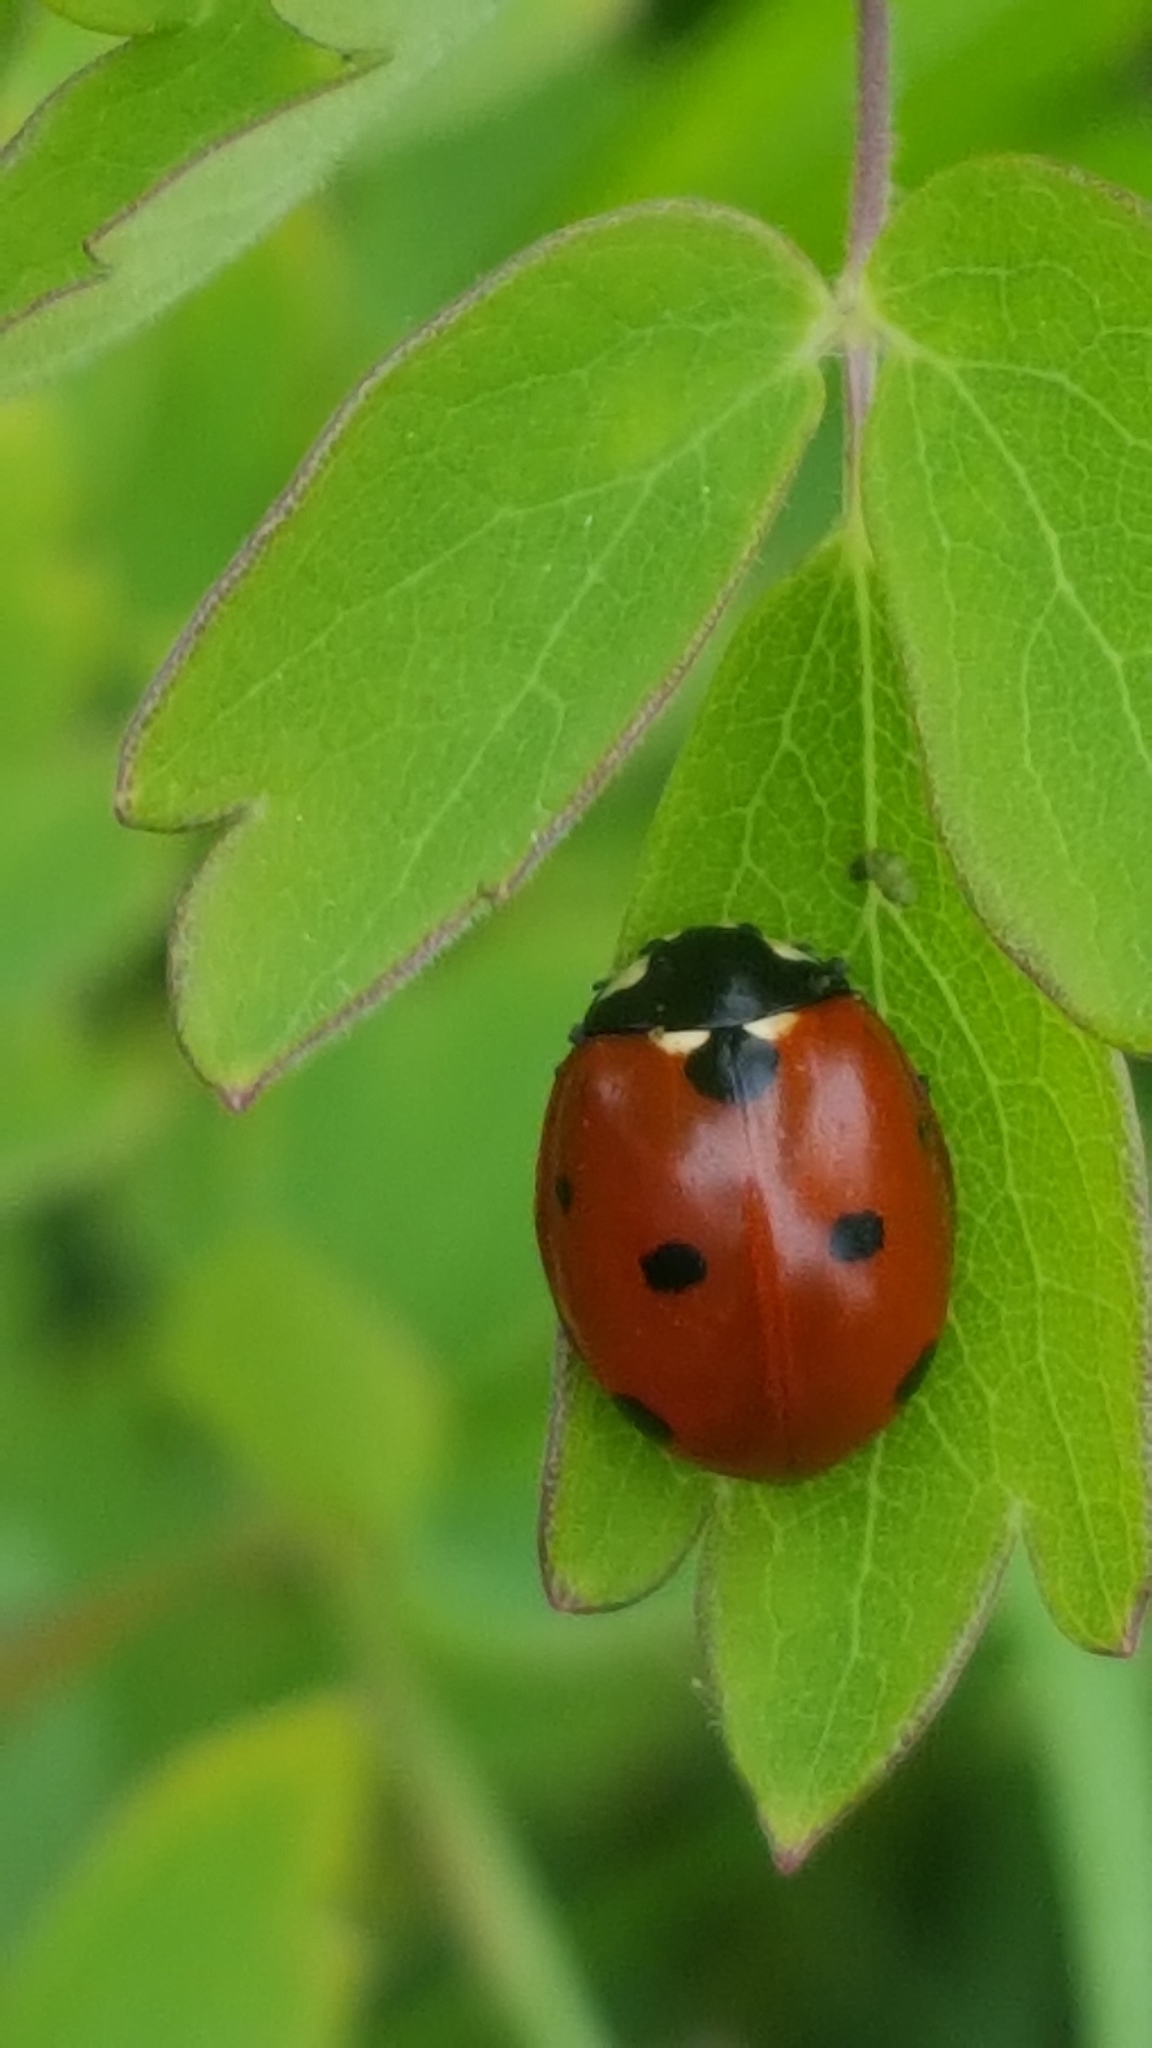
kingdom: Animalia
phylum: Arthropoda
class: Insecta
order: Coleoptera
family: Coccinellidae
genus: Coccinella
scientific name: Coccinella septempunctata
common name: Sevenspotted lady beetle
